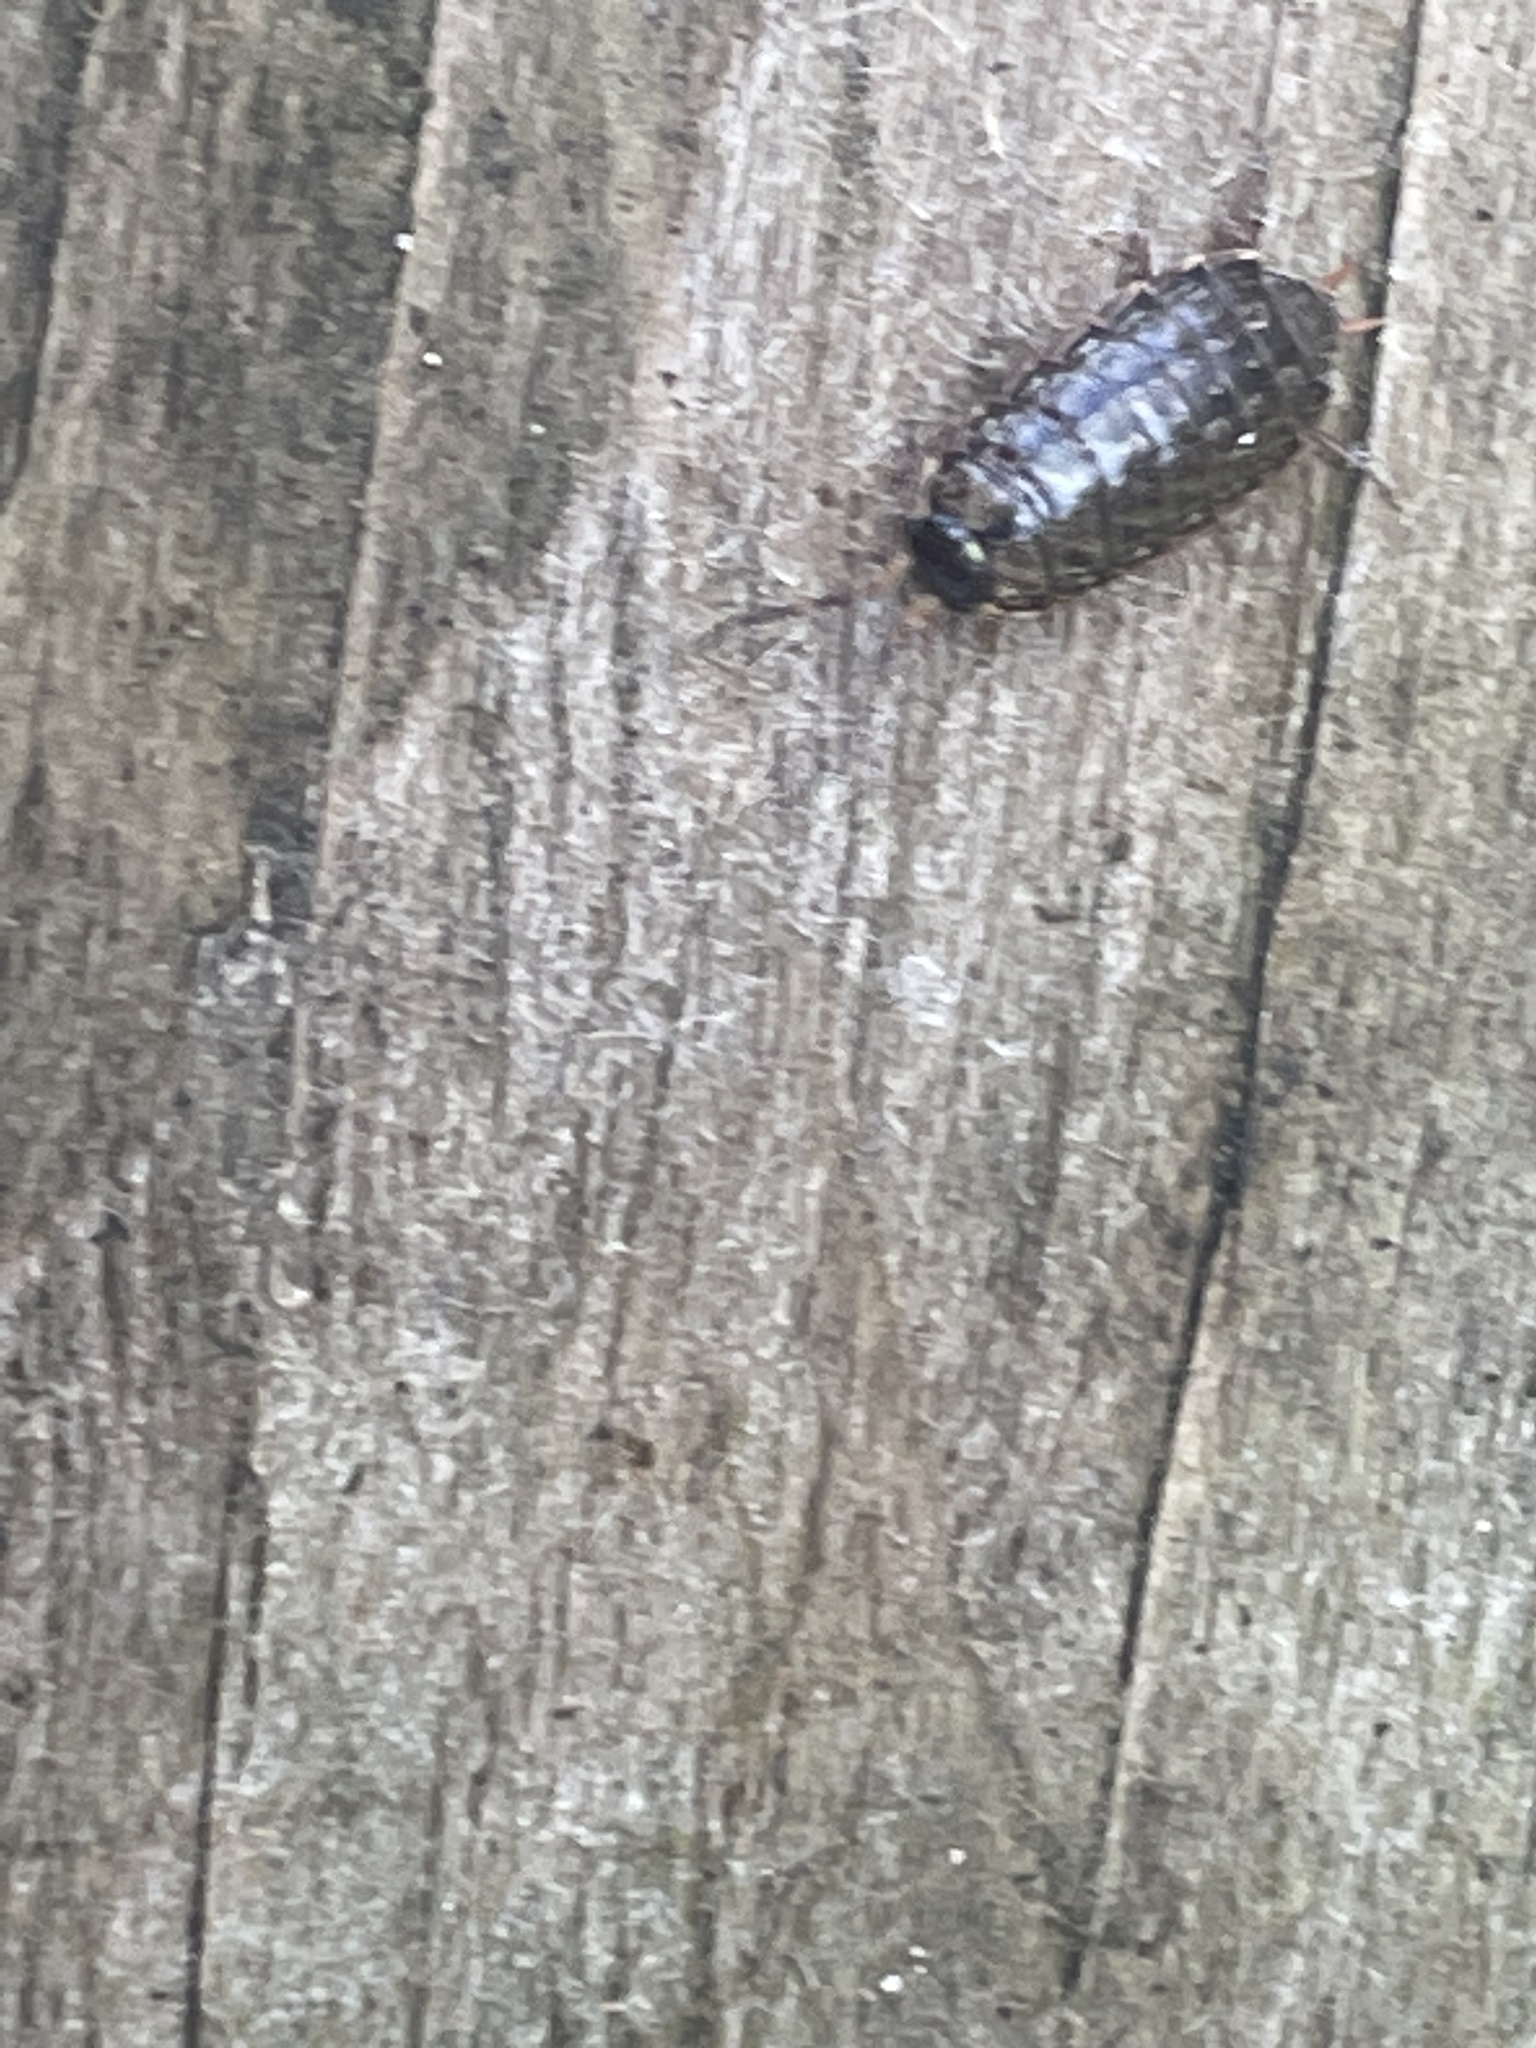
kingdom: Animalia
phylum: Arthropoda
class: Malacostraca
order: Isopoda
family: Philosciidae
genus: Philoscia
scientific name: Philoscia muscorum
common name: Common striped woodlouse
